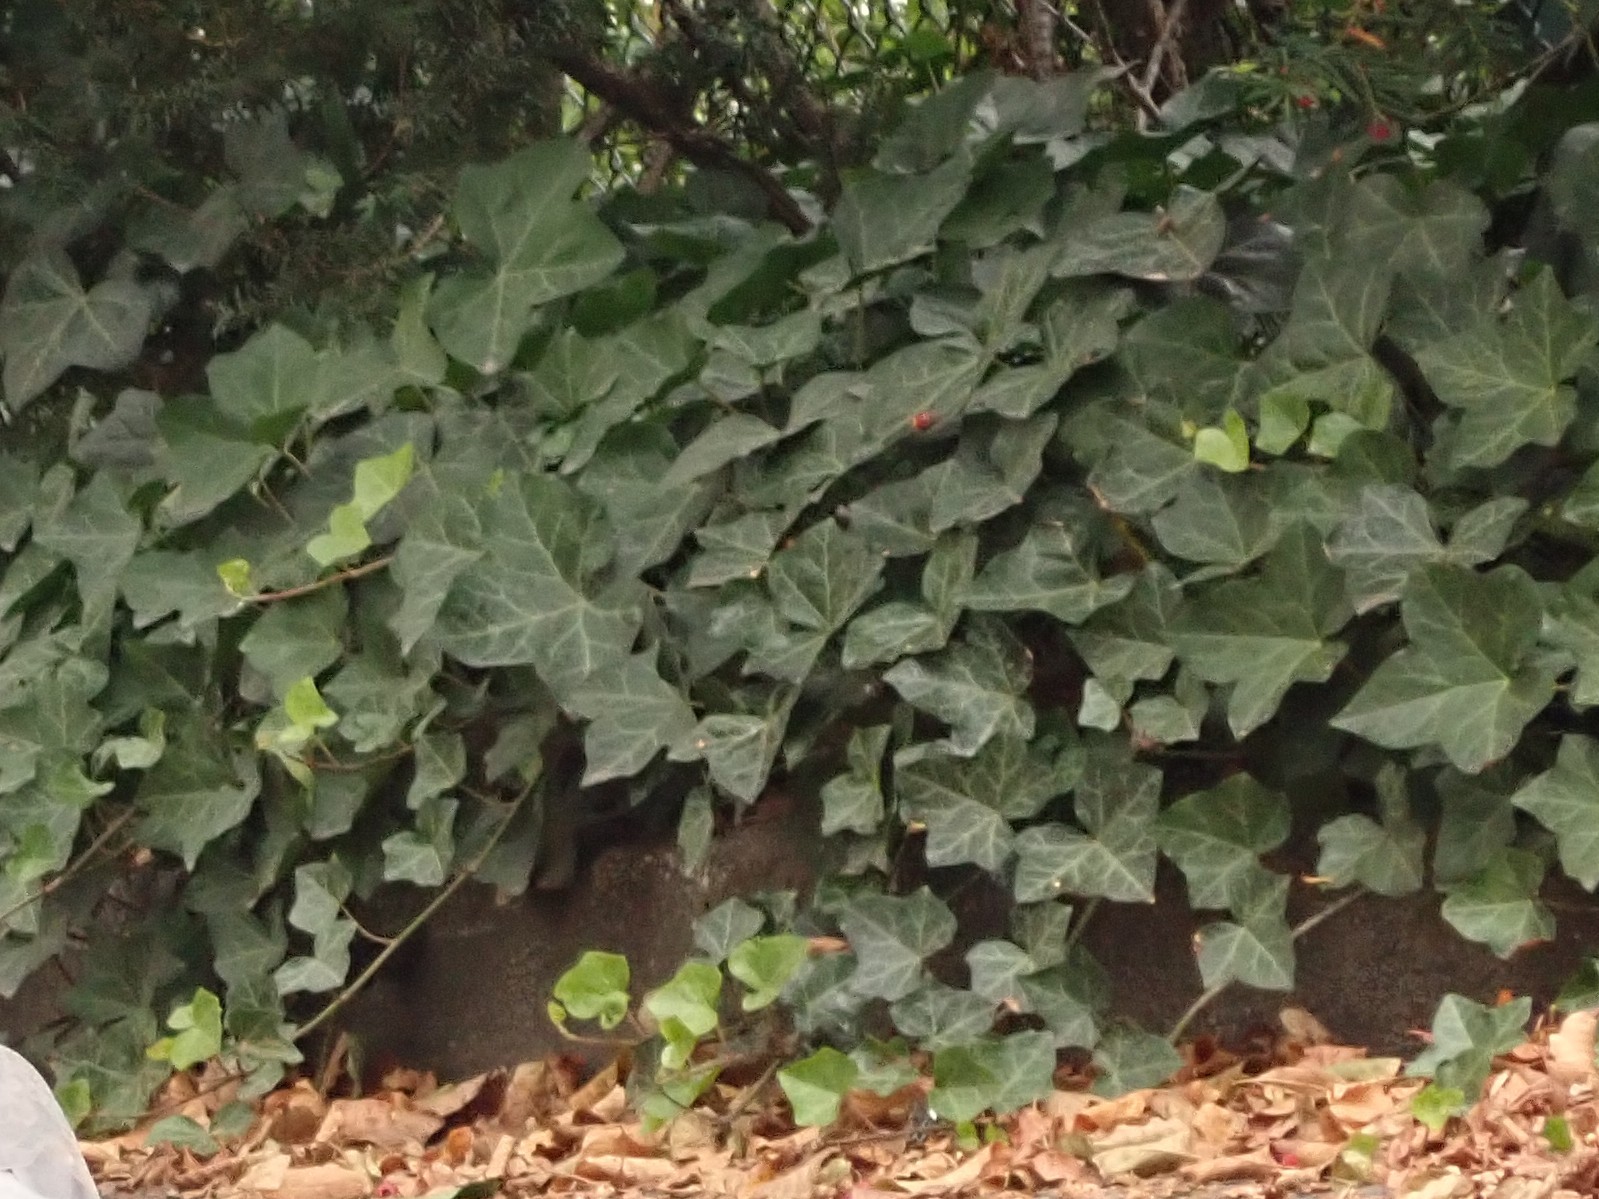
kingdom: Plantae
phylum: Tracheophyta
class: Magnoliopsida
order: Apiales
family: Araliaceae
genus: Hedera
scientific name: Hedera helix
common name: Ivy
